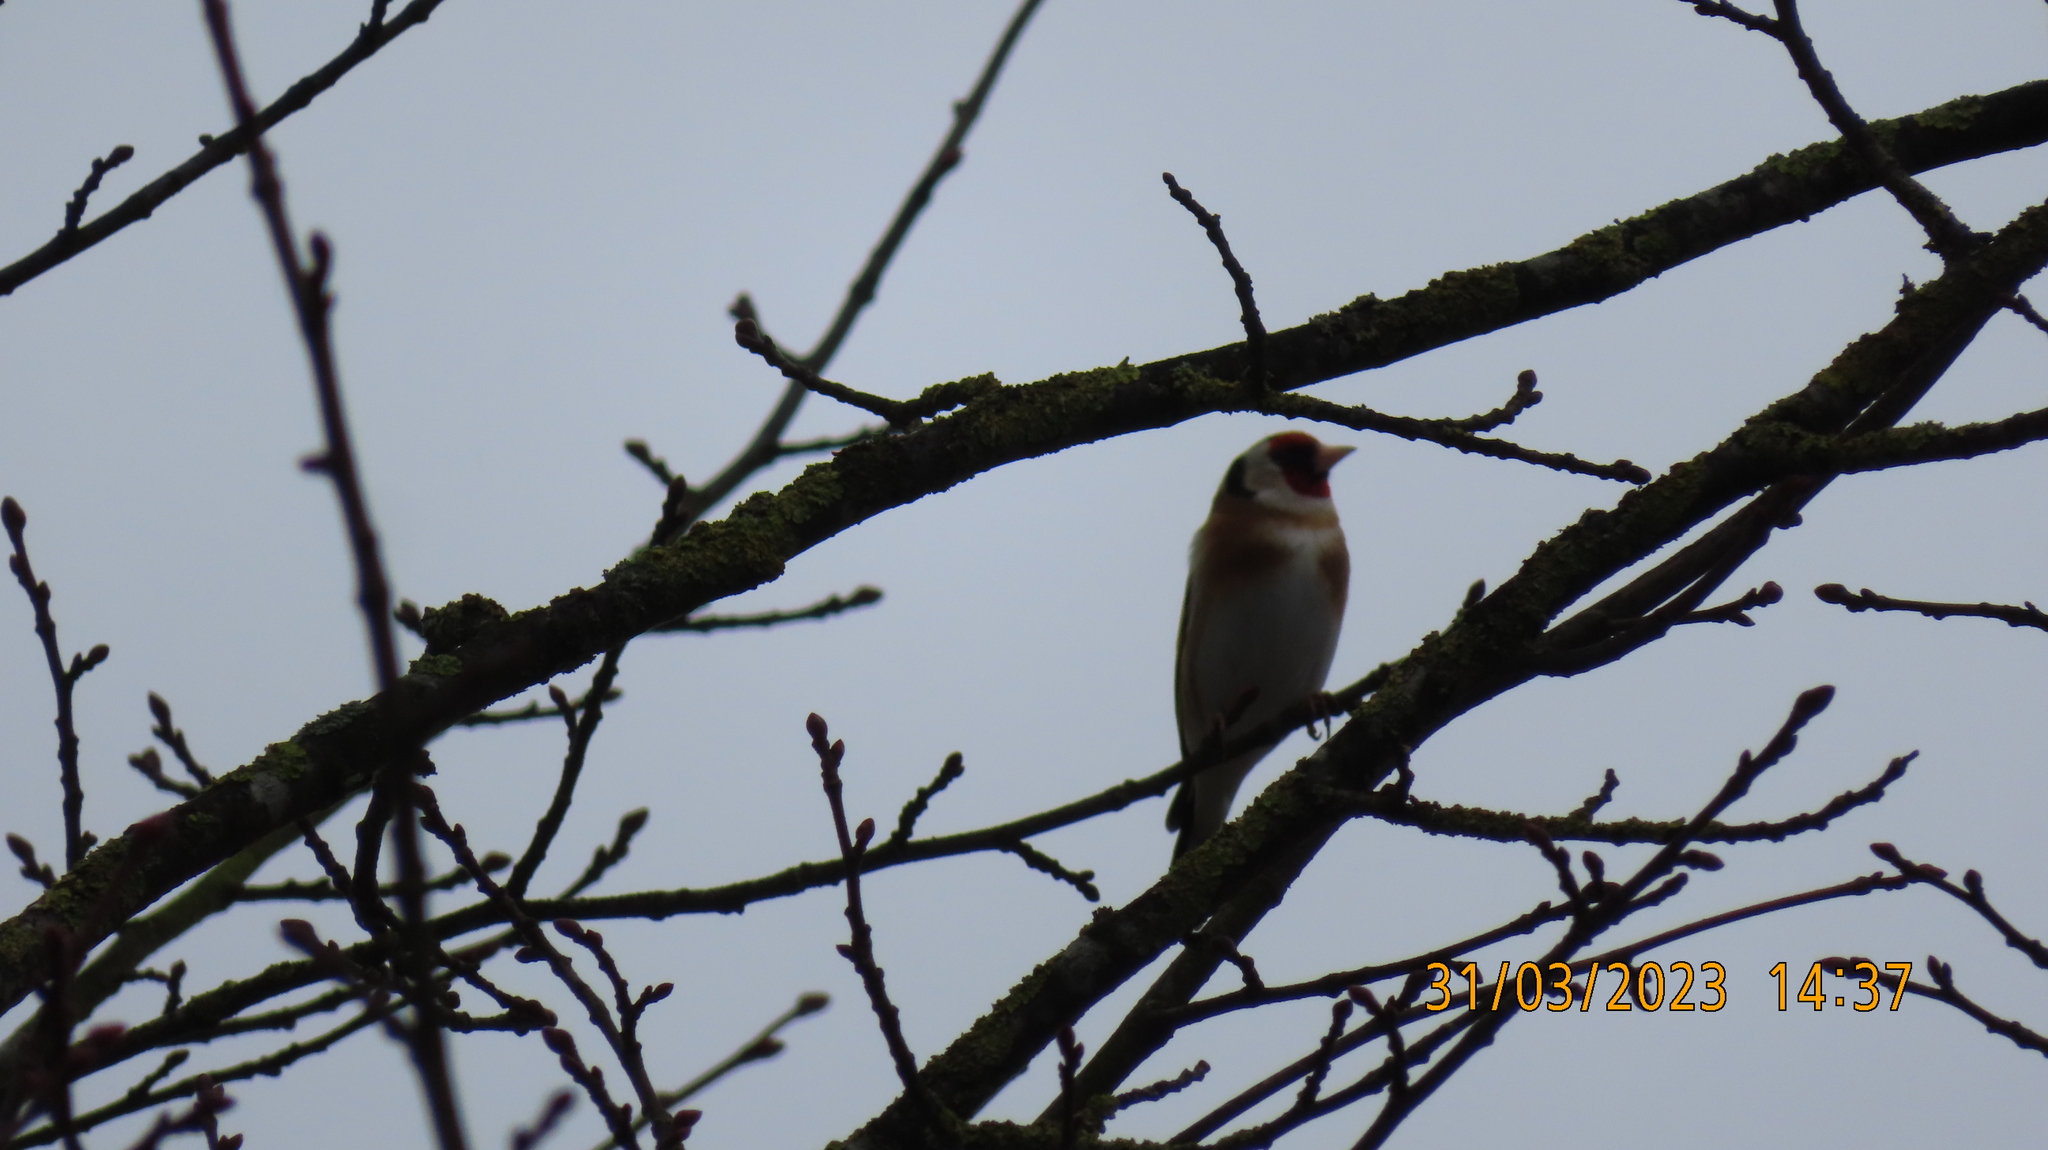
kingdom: Animalia
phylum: Chordata
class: Aves
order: Passeriformes
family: Fringillidae
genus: Carduelis
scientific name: Carduelis carduelis
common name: European goldfinch
